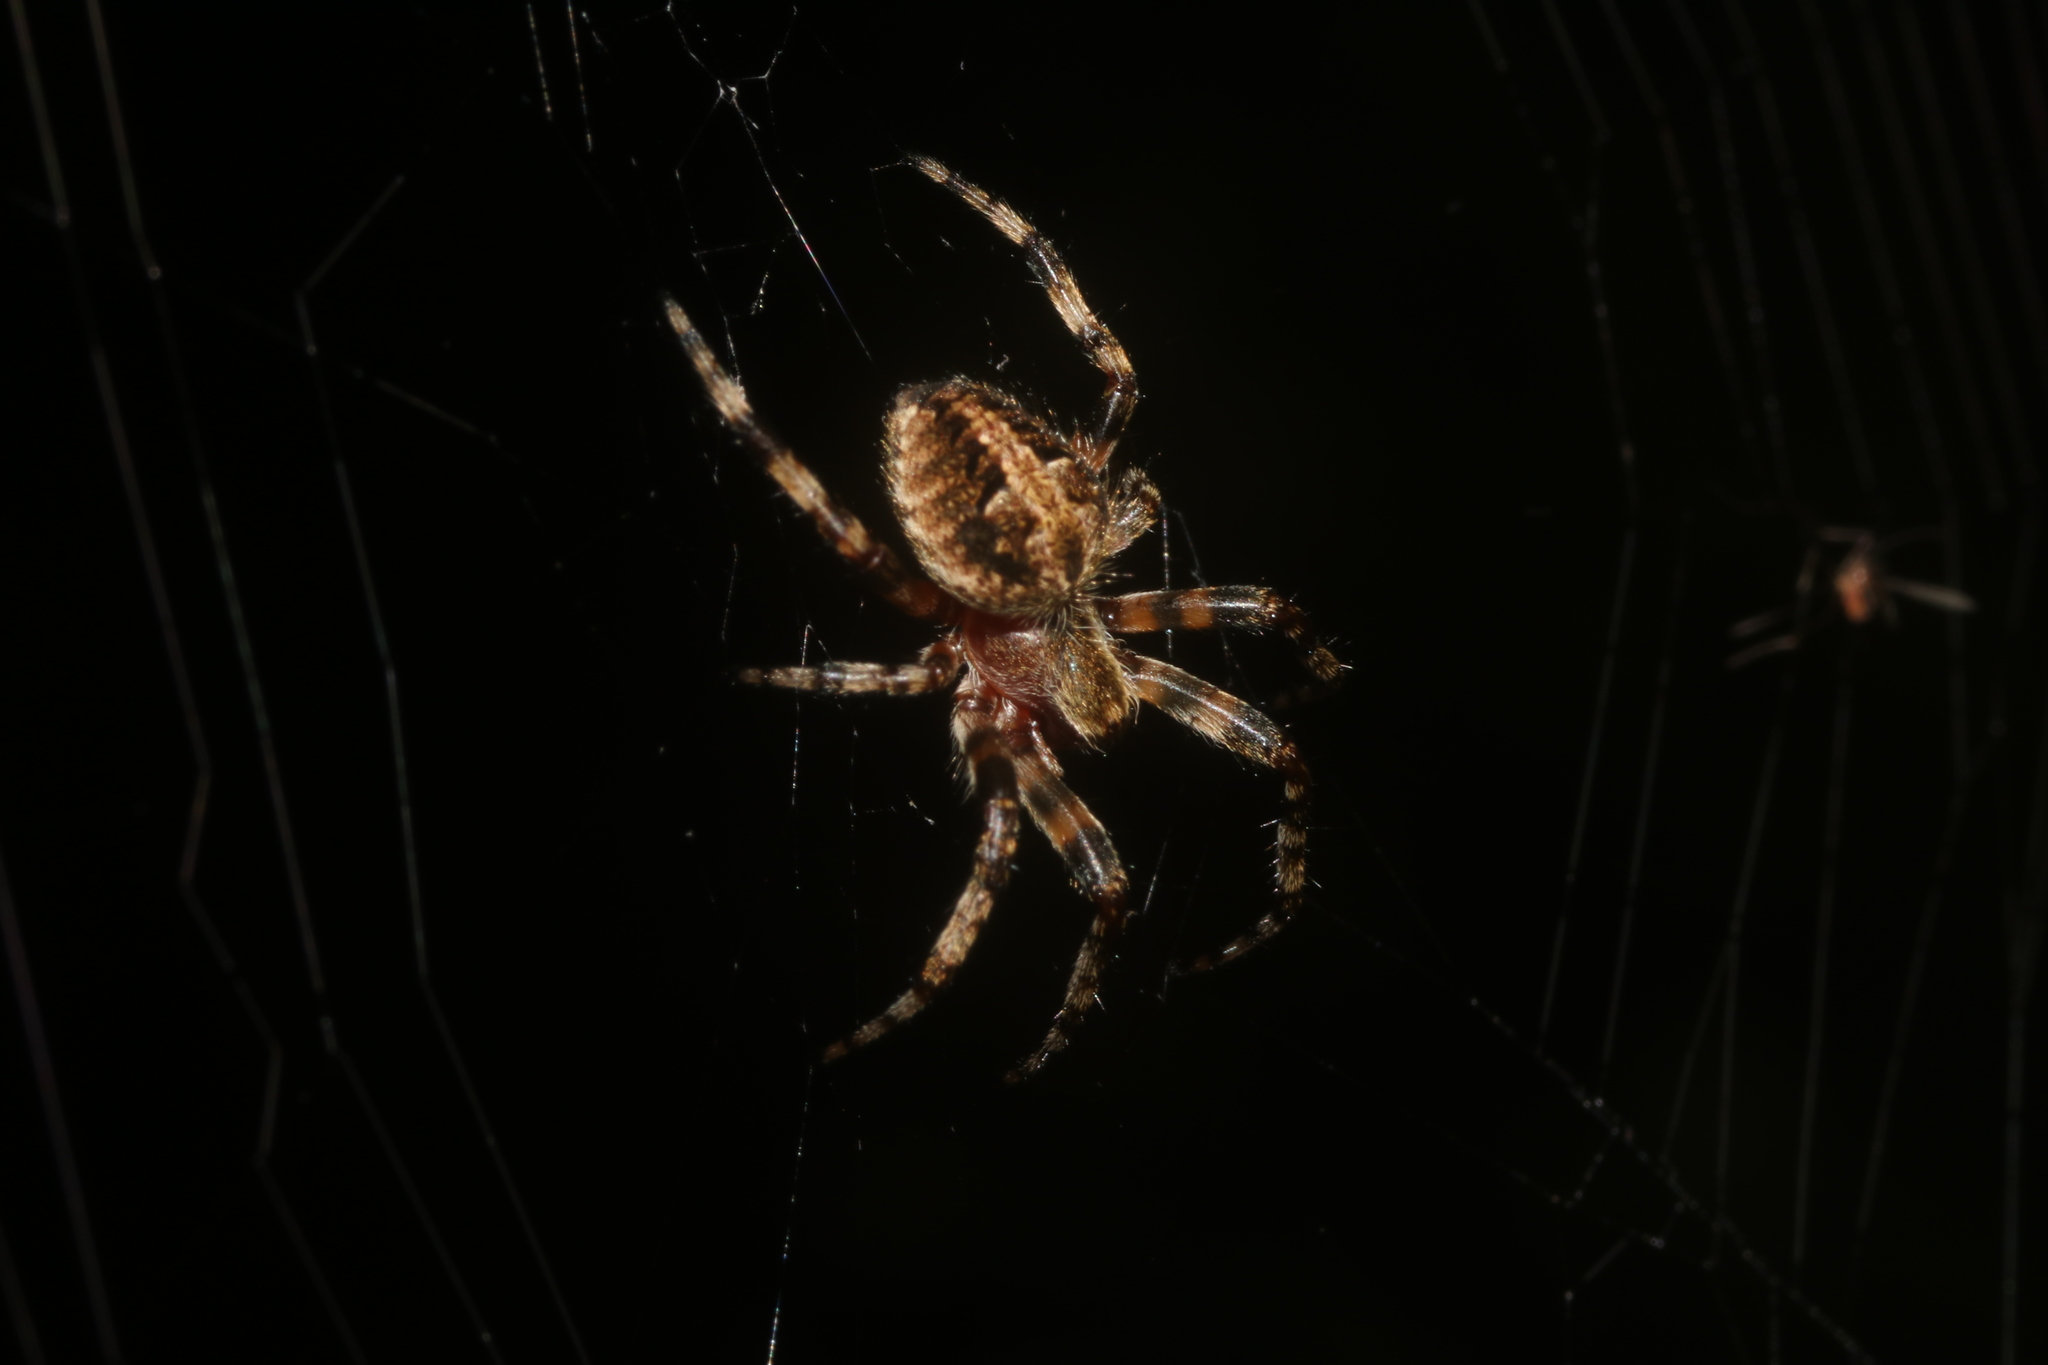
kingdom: Animalia
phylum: Arthropoda
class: Arachnida
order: Araneae
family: Araneidae
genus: Neoscona
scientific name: Neoscona orizabensis
